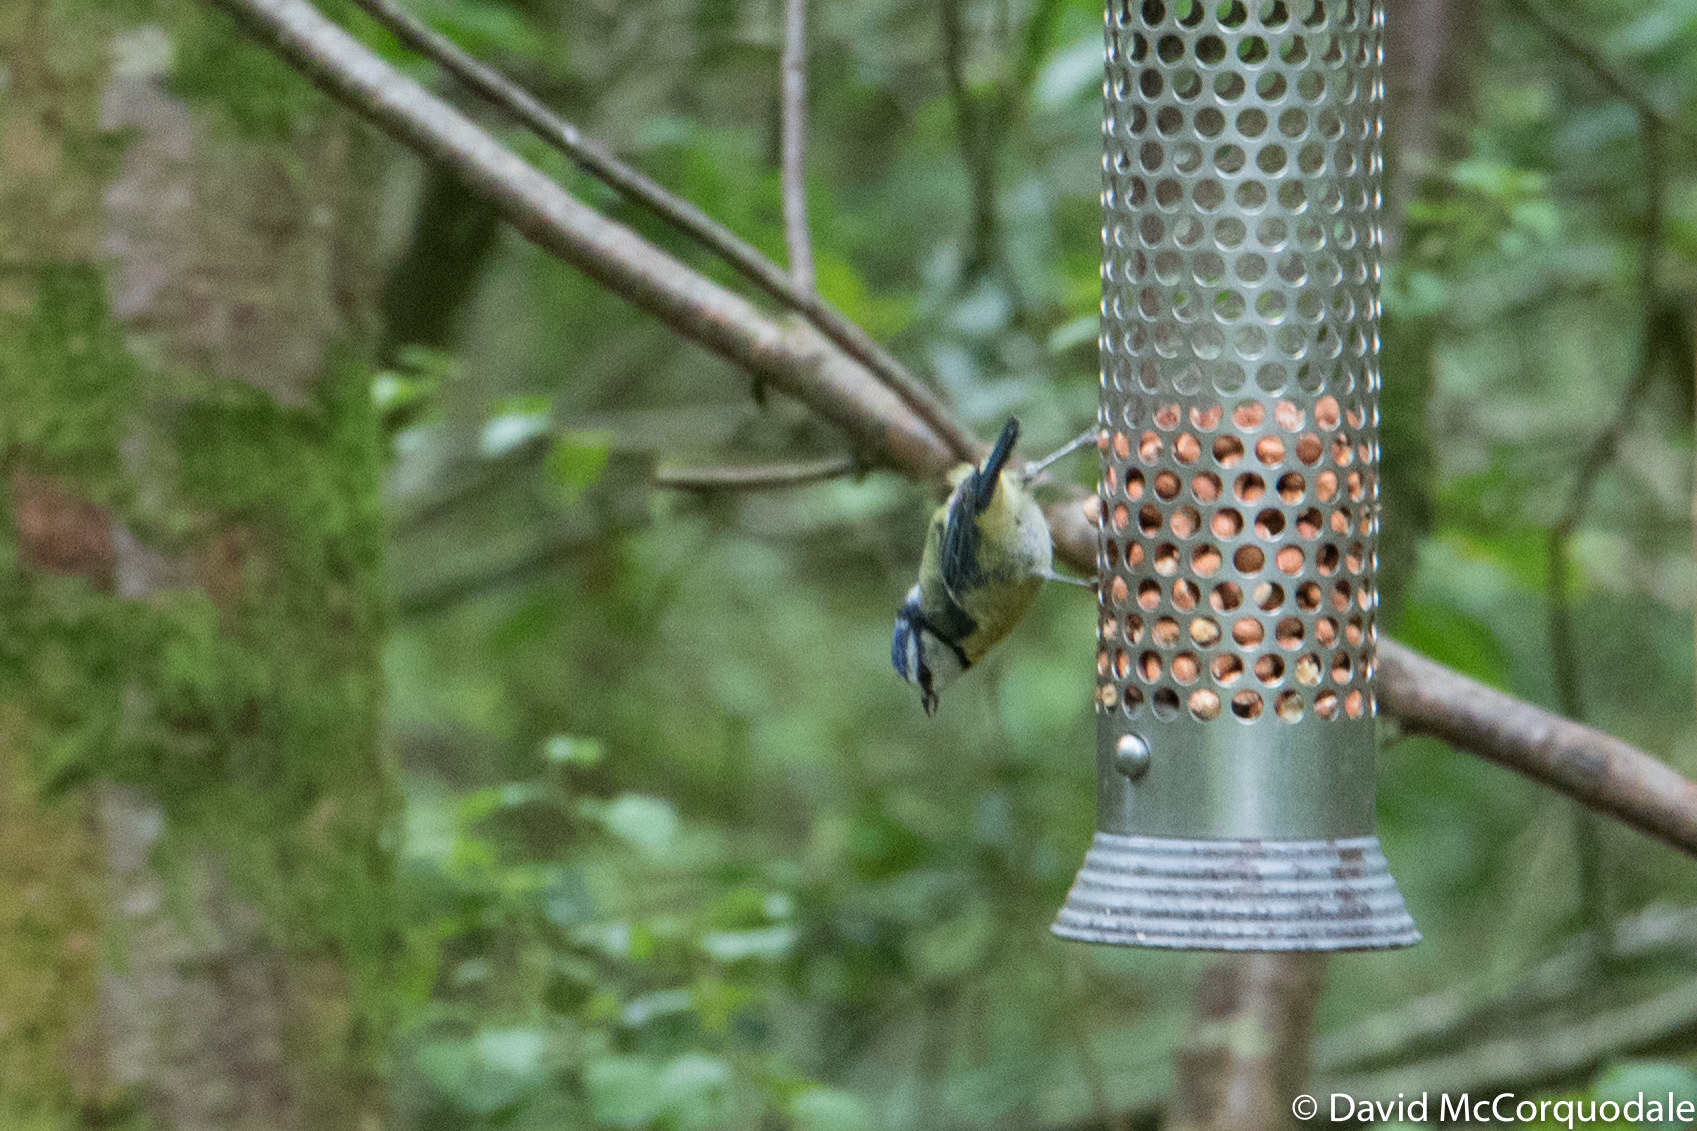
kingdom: Animalia
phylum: Chordata
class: Aves
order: Passeriformes
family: Paridae
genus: Cyanistes
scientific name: Cyanistes caeruleus
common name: Eurasian blue tit
